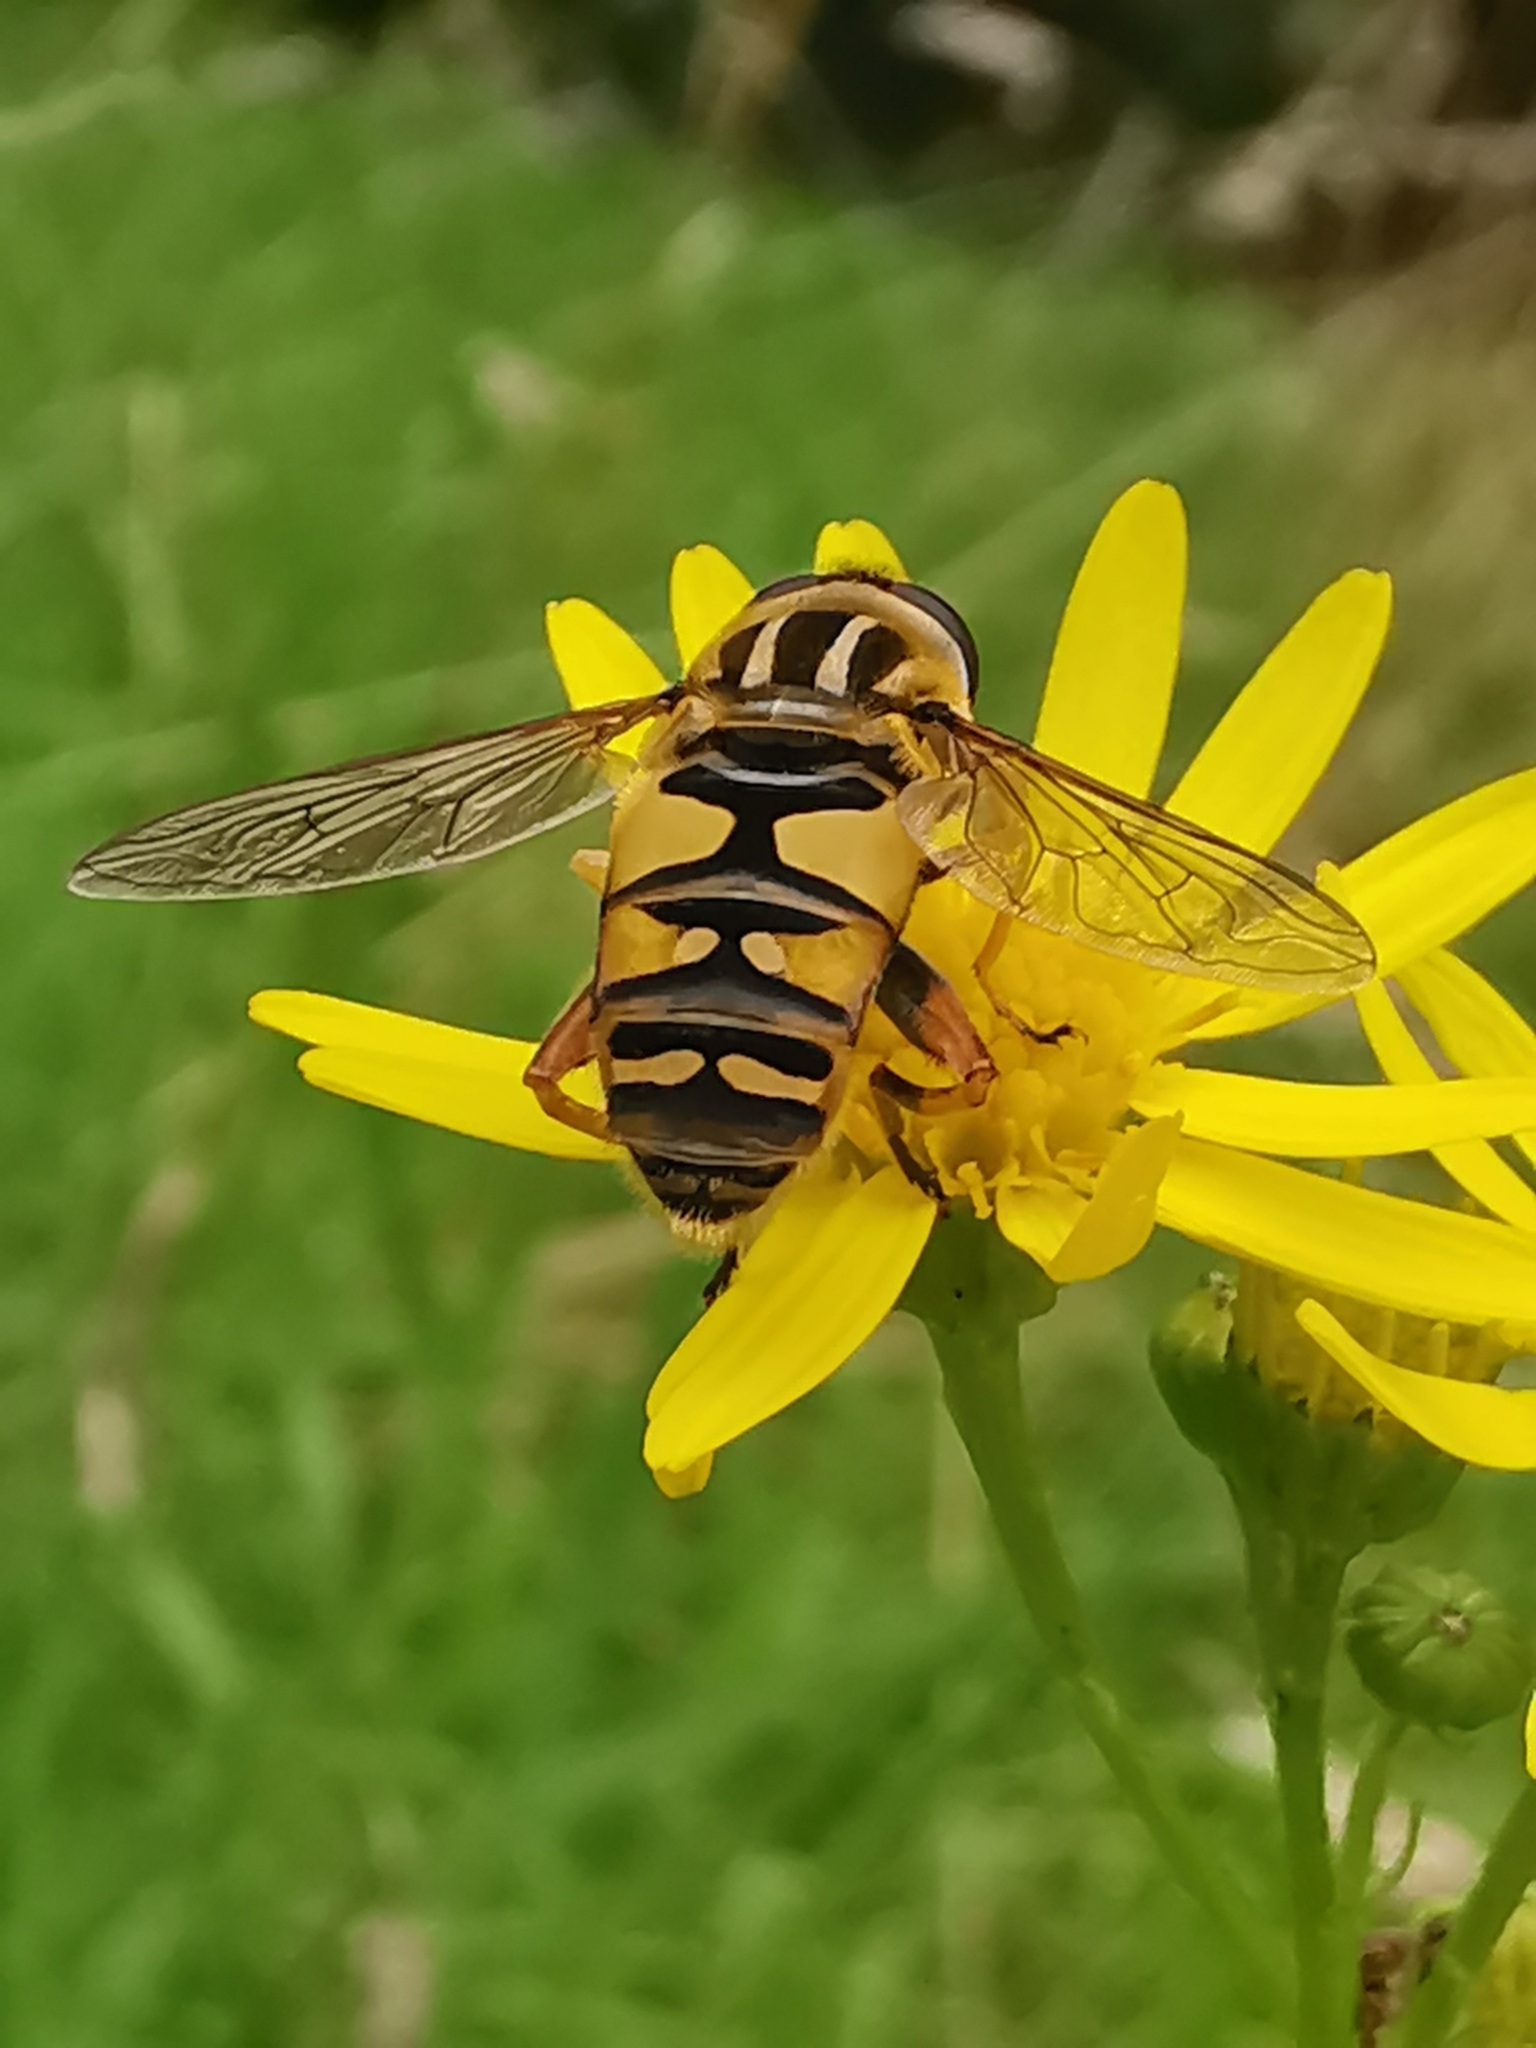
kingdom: Animalia
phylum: Arthropoda
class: Insecta
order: Diptera
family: Syrphidae
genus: Helophilus
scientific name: Helophilus pendulus
